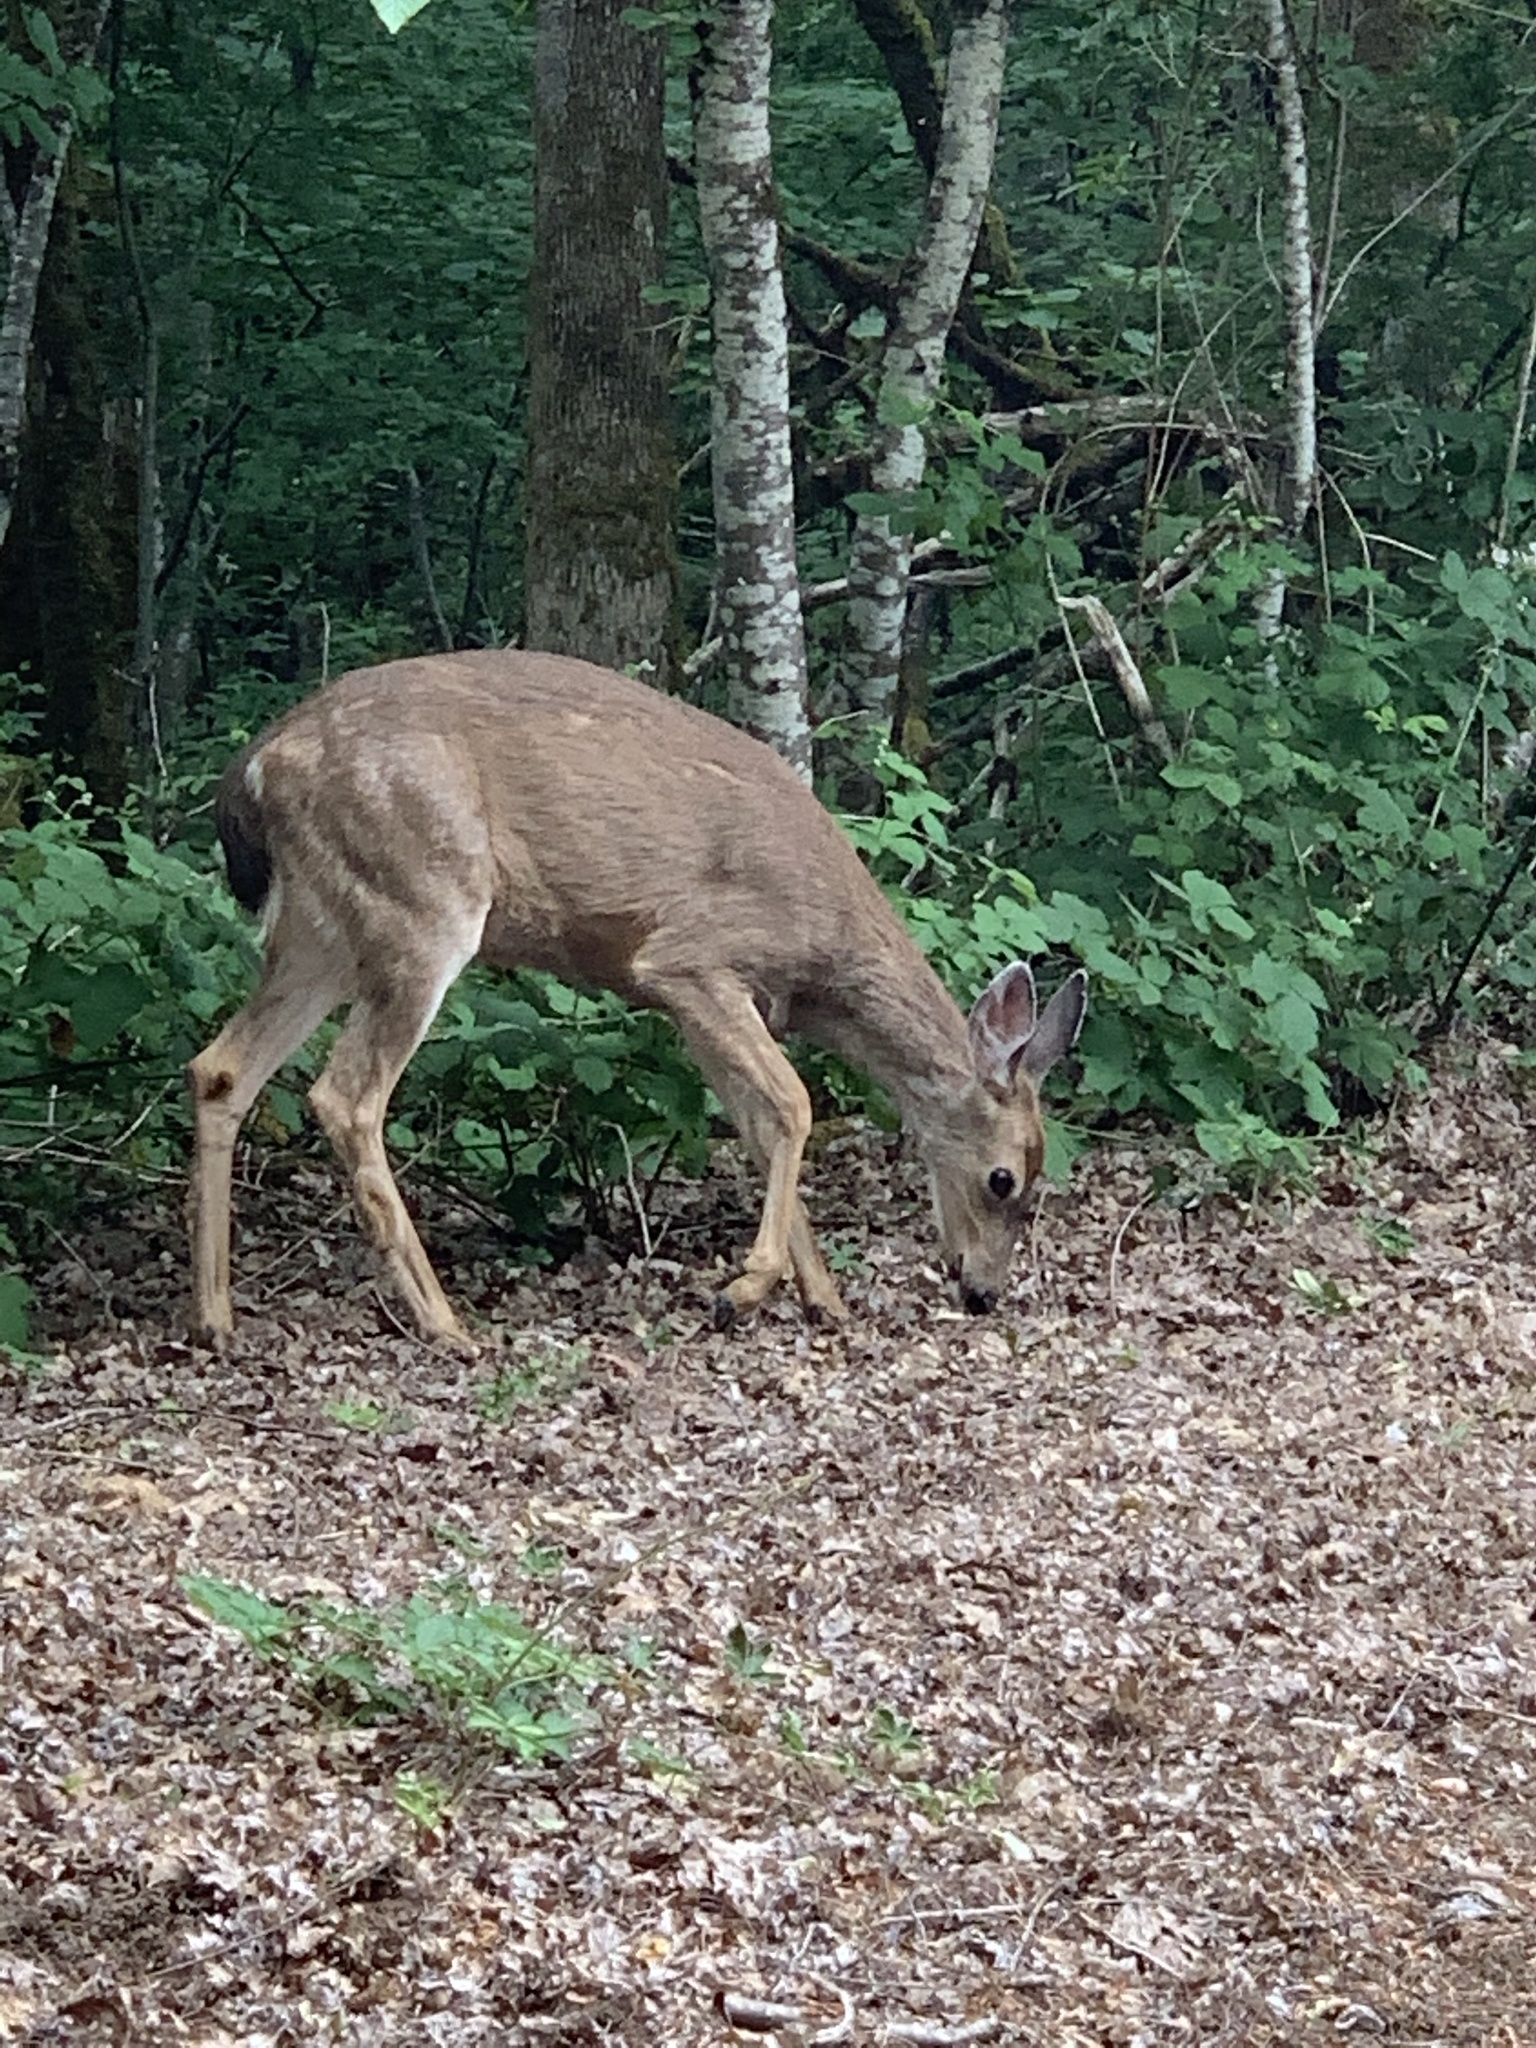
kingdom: Animalia
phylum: Chordata
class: Mammalia
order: Artiodactyla
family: Cervidae
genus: Odocoileus
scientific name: Odocoileus hemionus
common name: Mule deer
